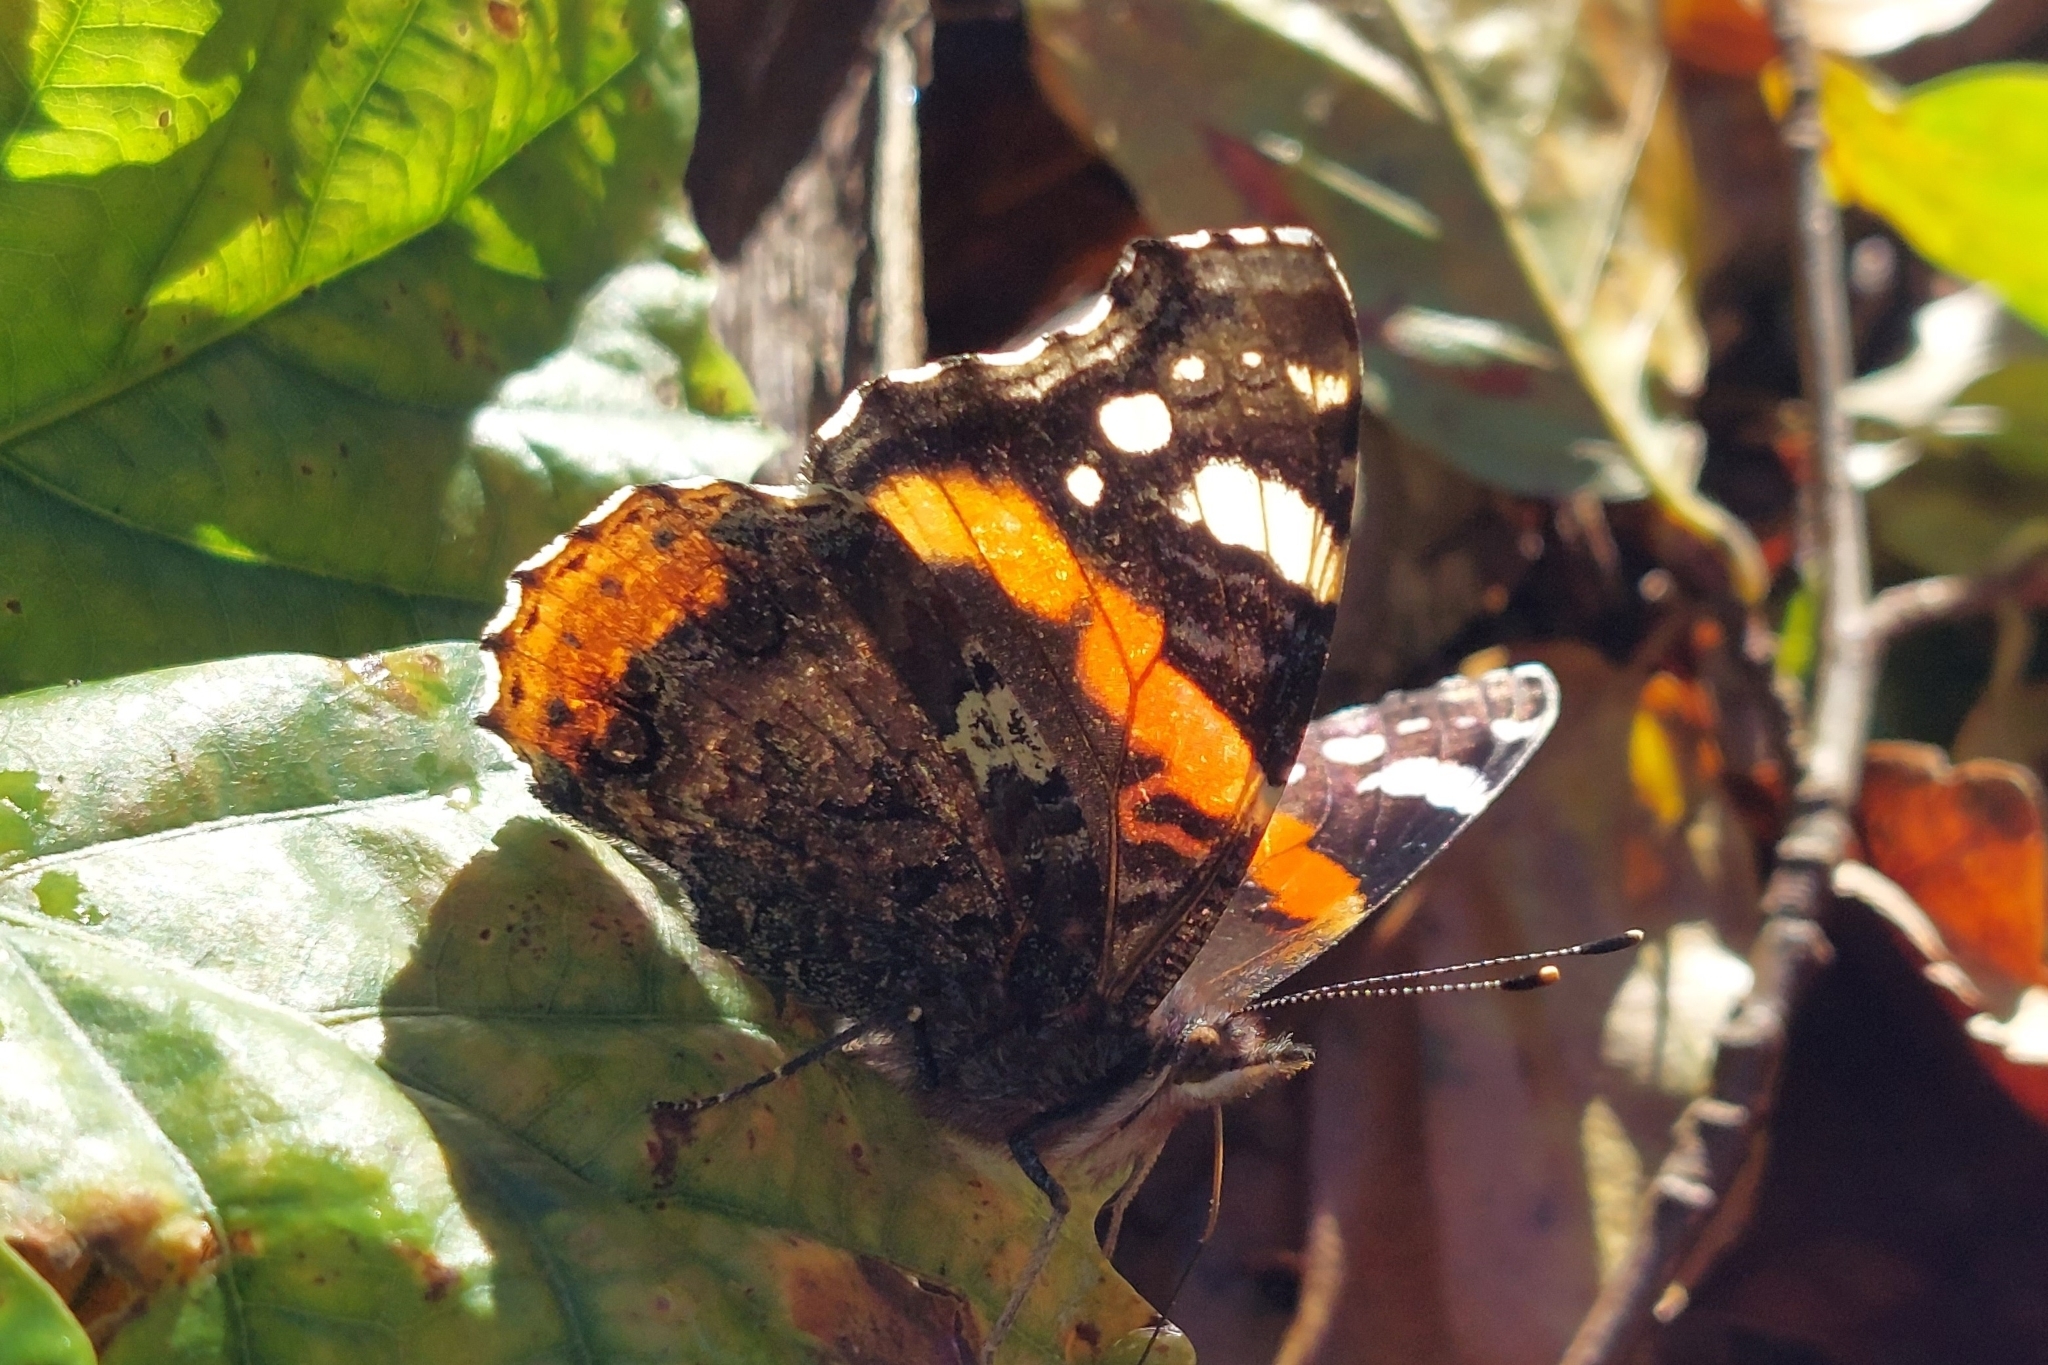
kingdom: Animalia
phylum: Arthropoda
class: Insecta
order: Lepidoptera
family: Nymphalidae
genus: Vanessa
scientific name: Vanessa atalanta
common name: Red admiral
